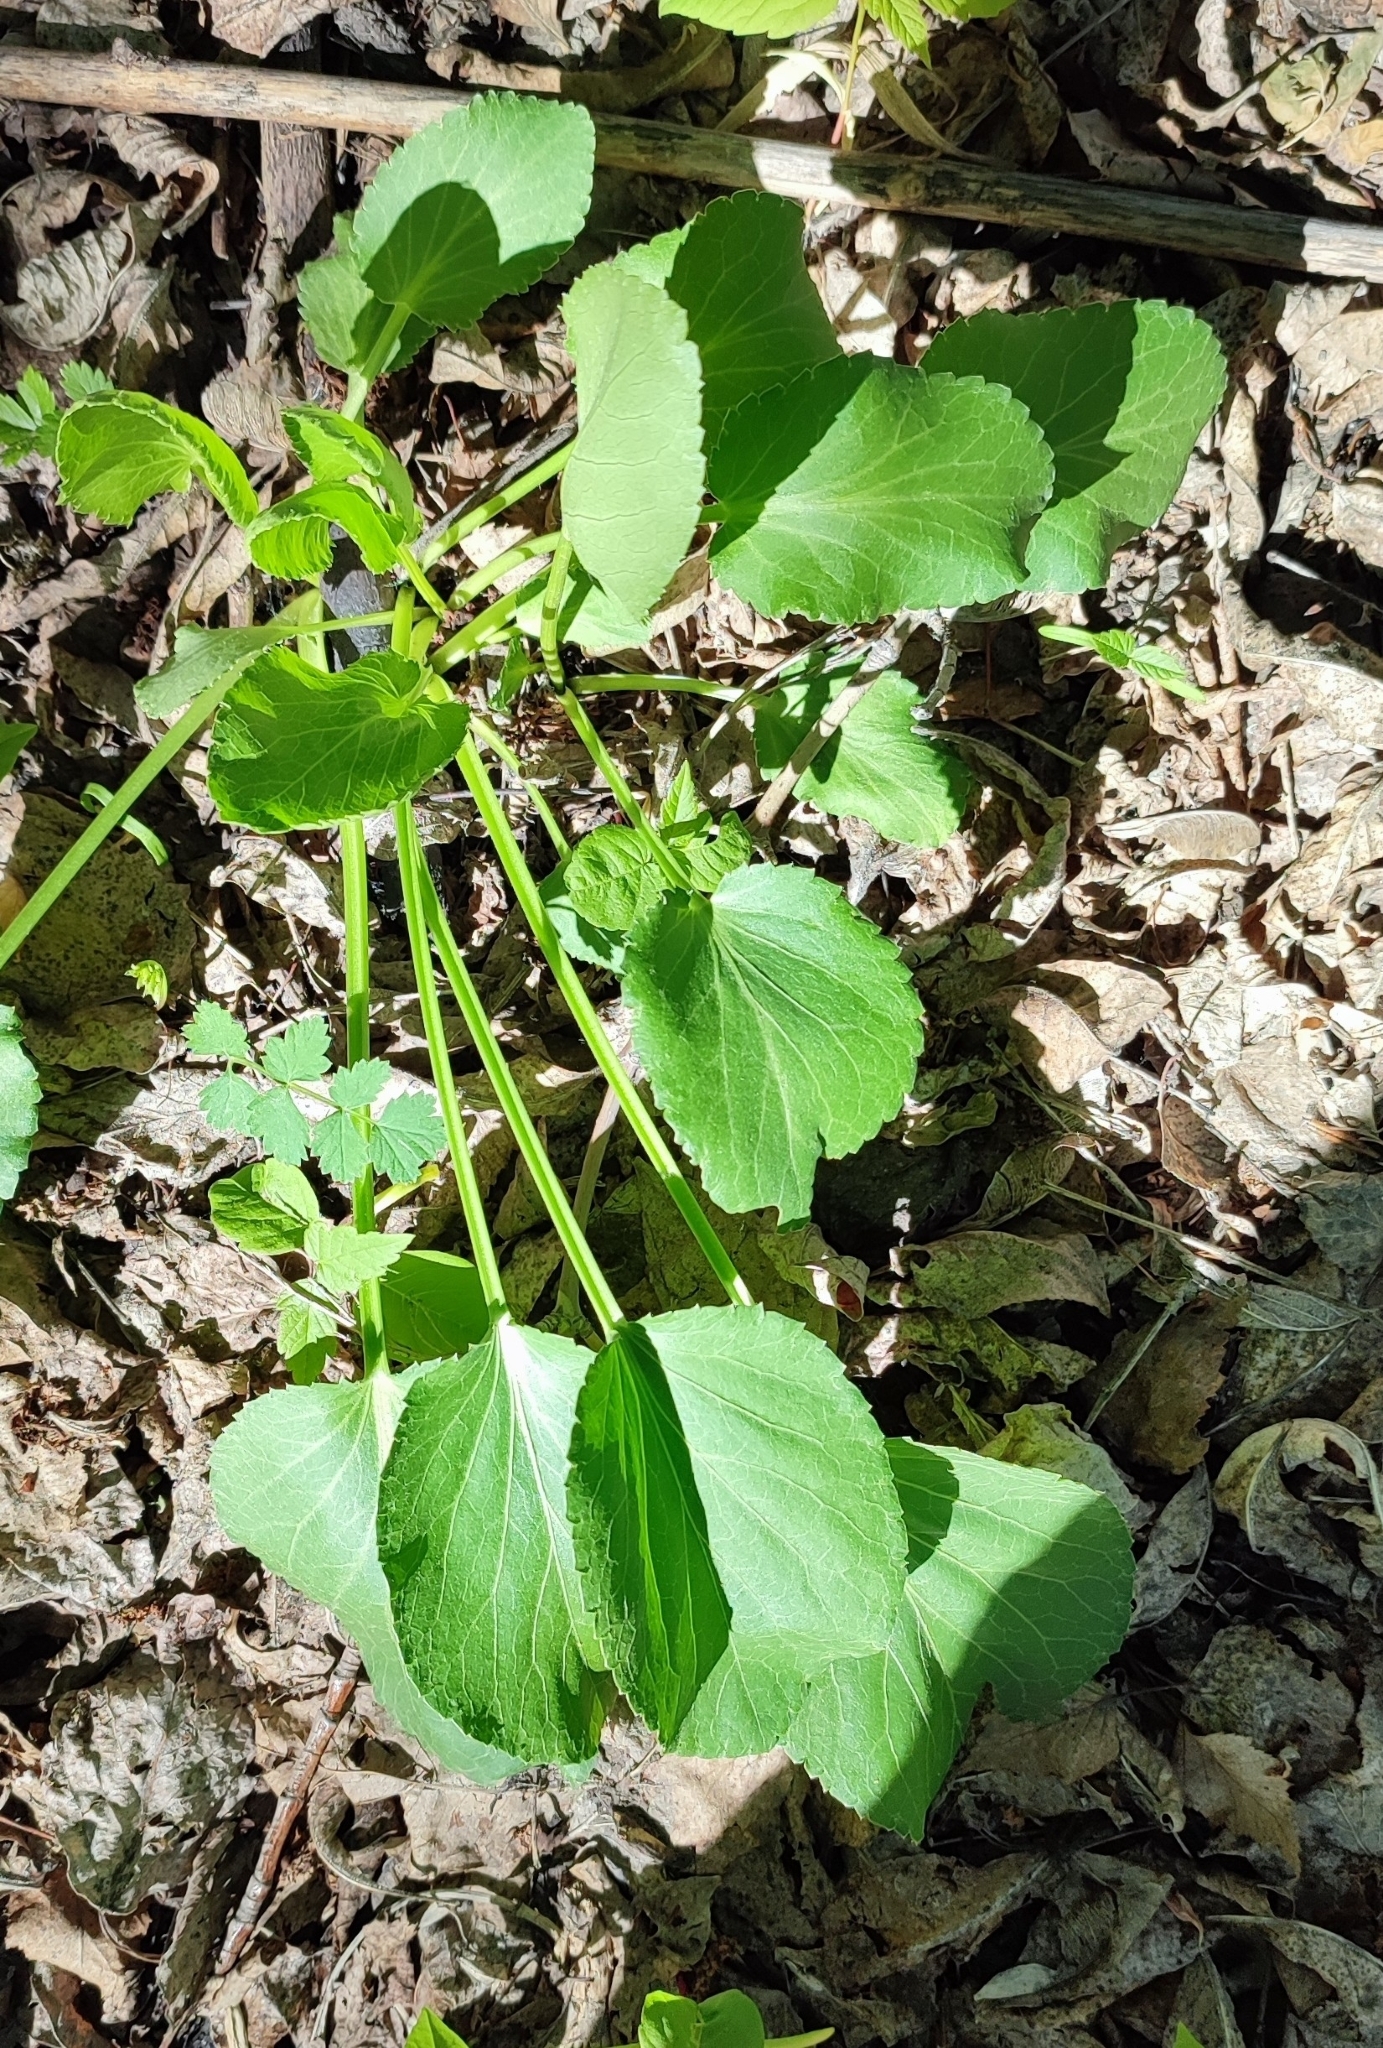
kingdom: Plantae
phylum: Tracheophyta
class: Magnoliopsida
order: Apiales
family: Apiaceae
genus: Eryngium
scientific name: Eryngium planum
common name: Blue eryngo
